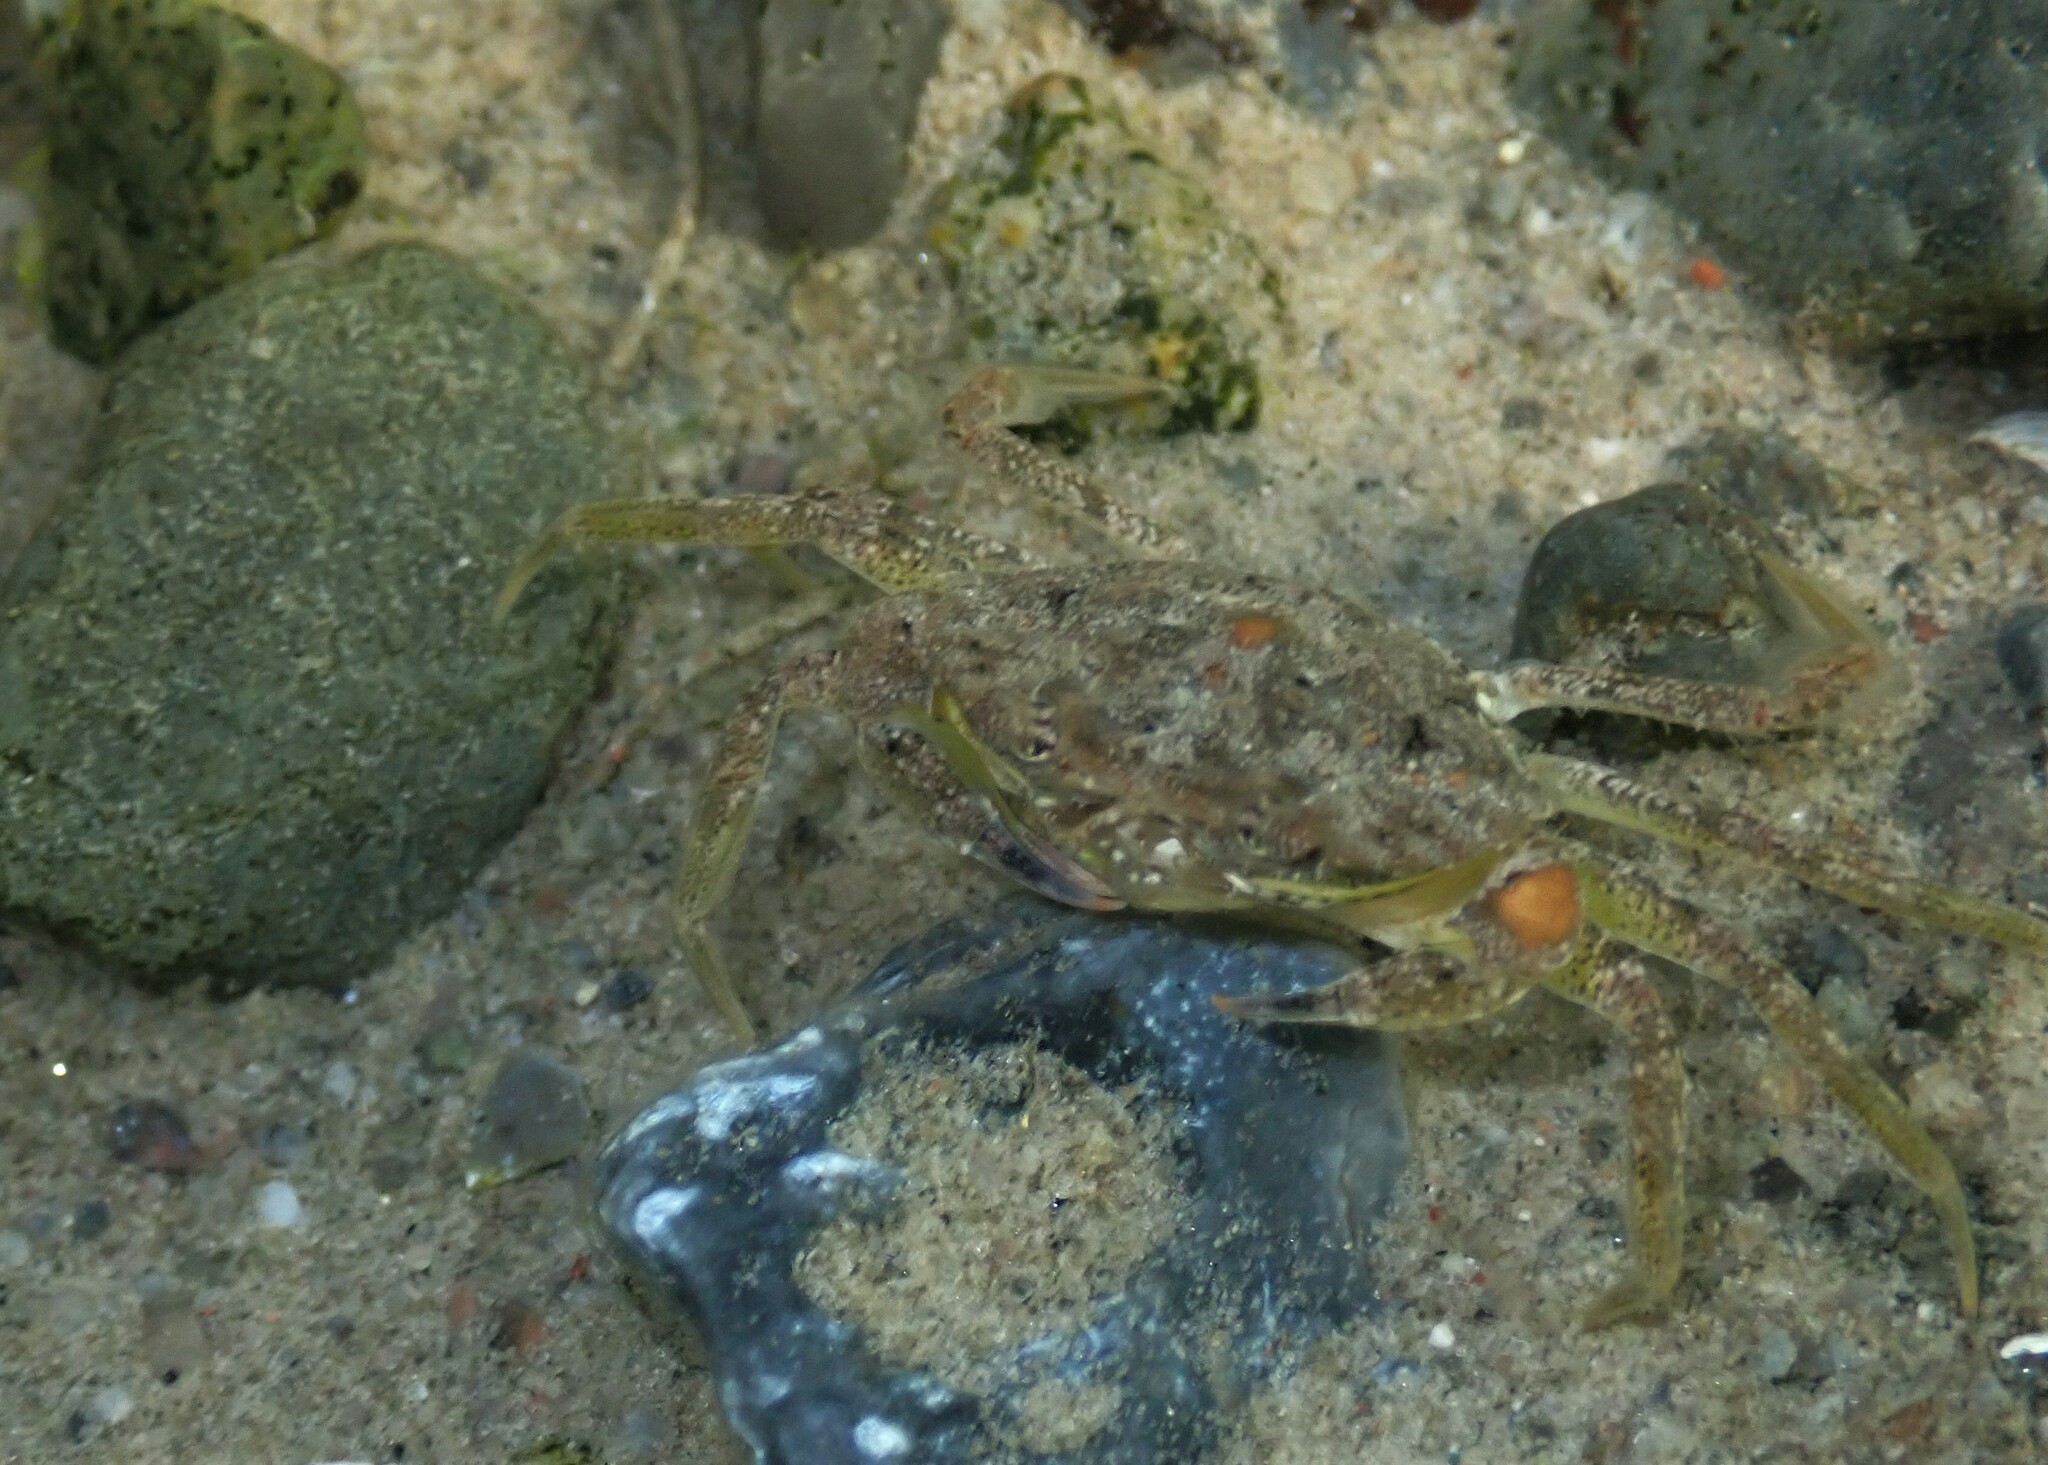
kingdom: Animalia
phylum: Arthropoda
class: Malacostraca
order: Decapoda
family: Carcinidae
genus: Carcinus
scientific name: Carcinus maenas
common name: European green crab
